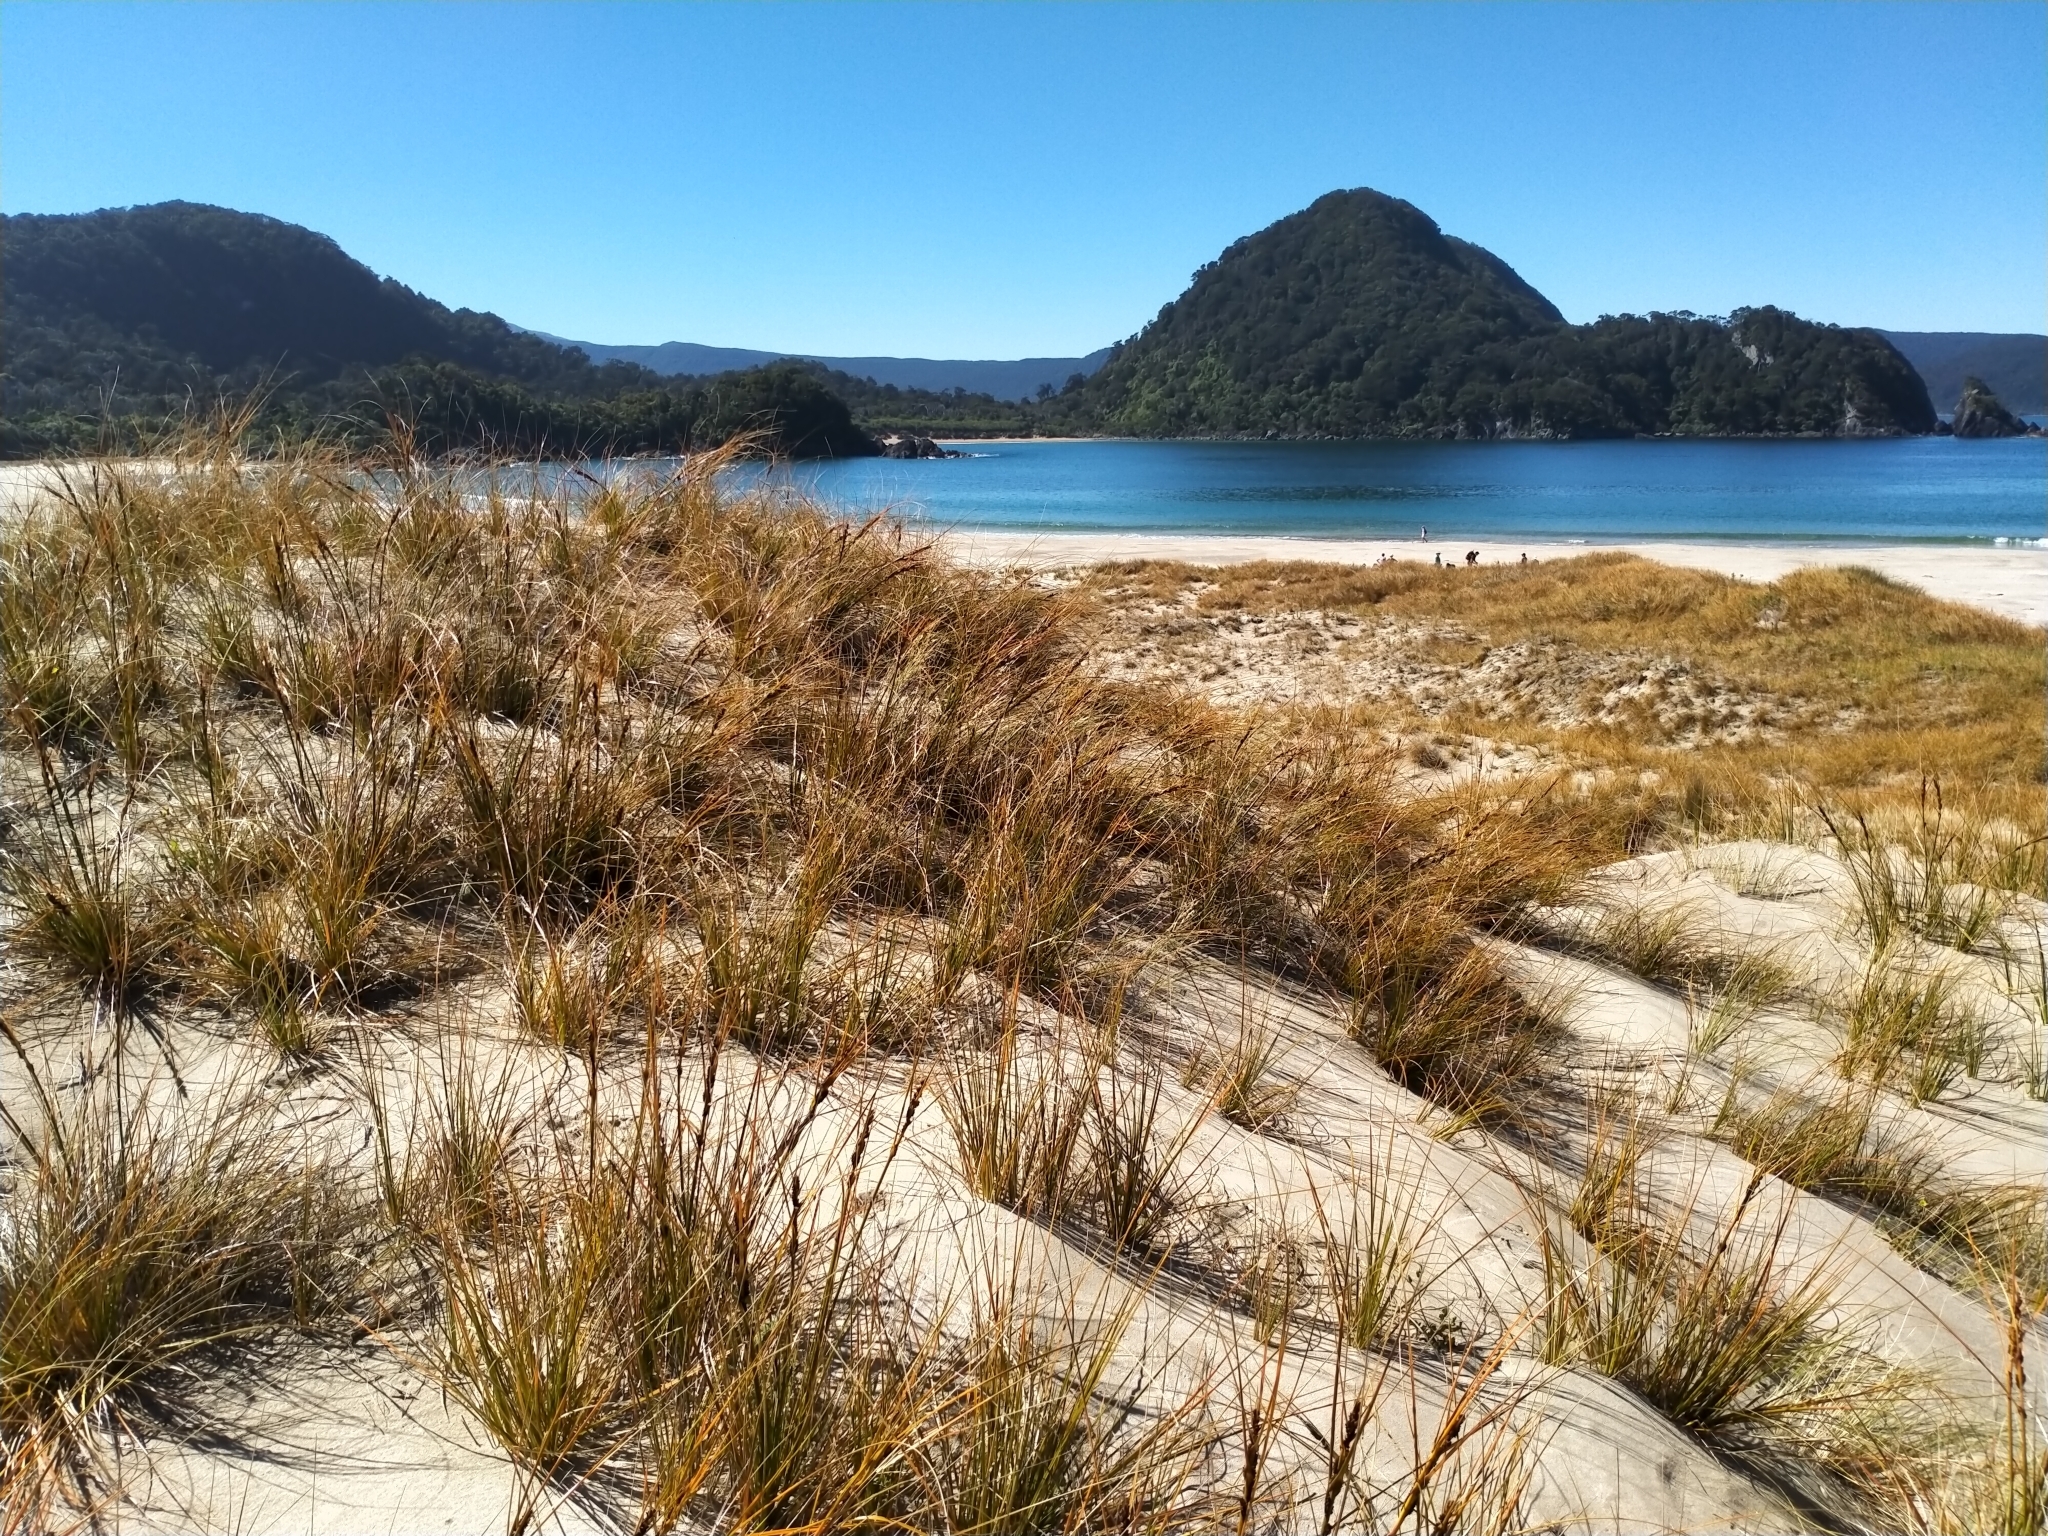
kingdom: Plantae
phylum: Tracheophyta
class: Liliopsida
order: Poales
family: Cyperaceae
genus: Ficinia
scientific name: Ficinia spiralis
